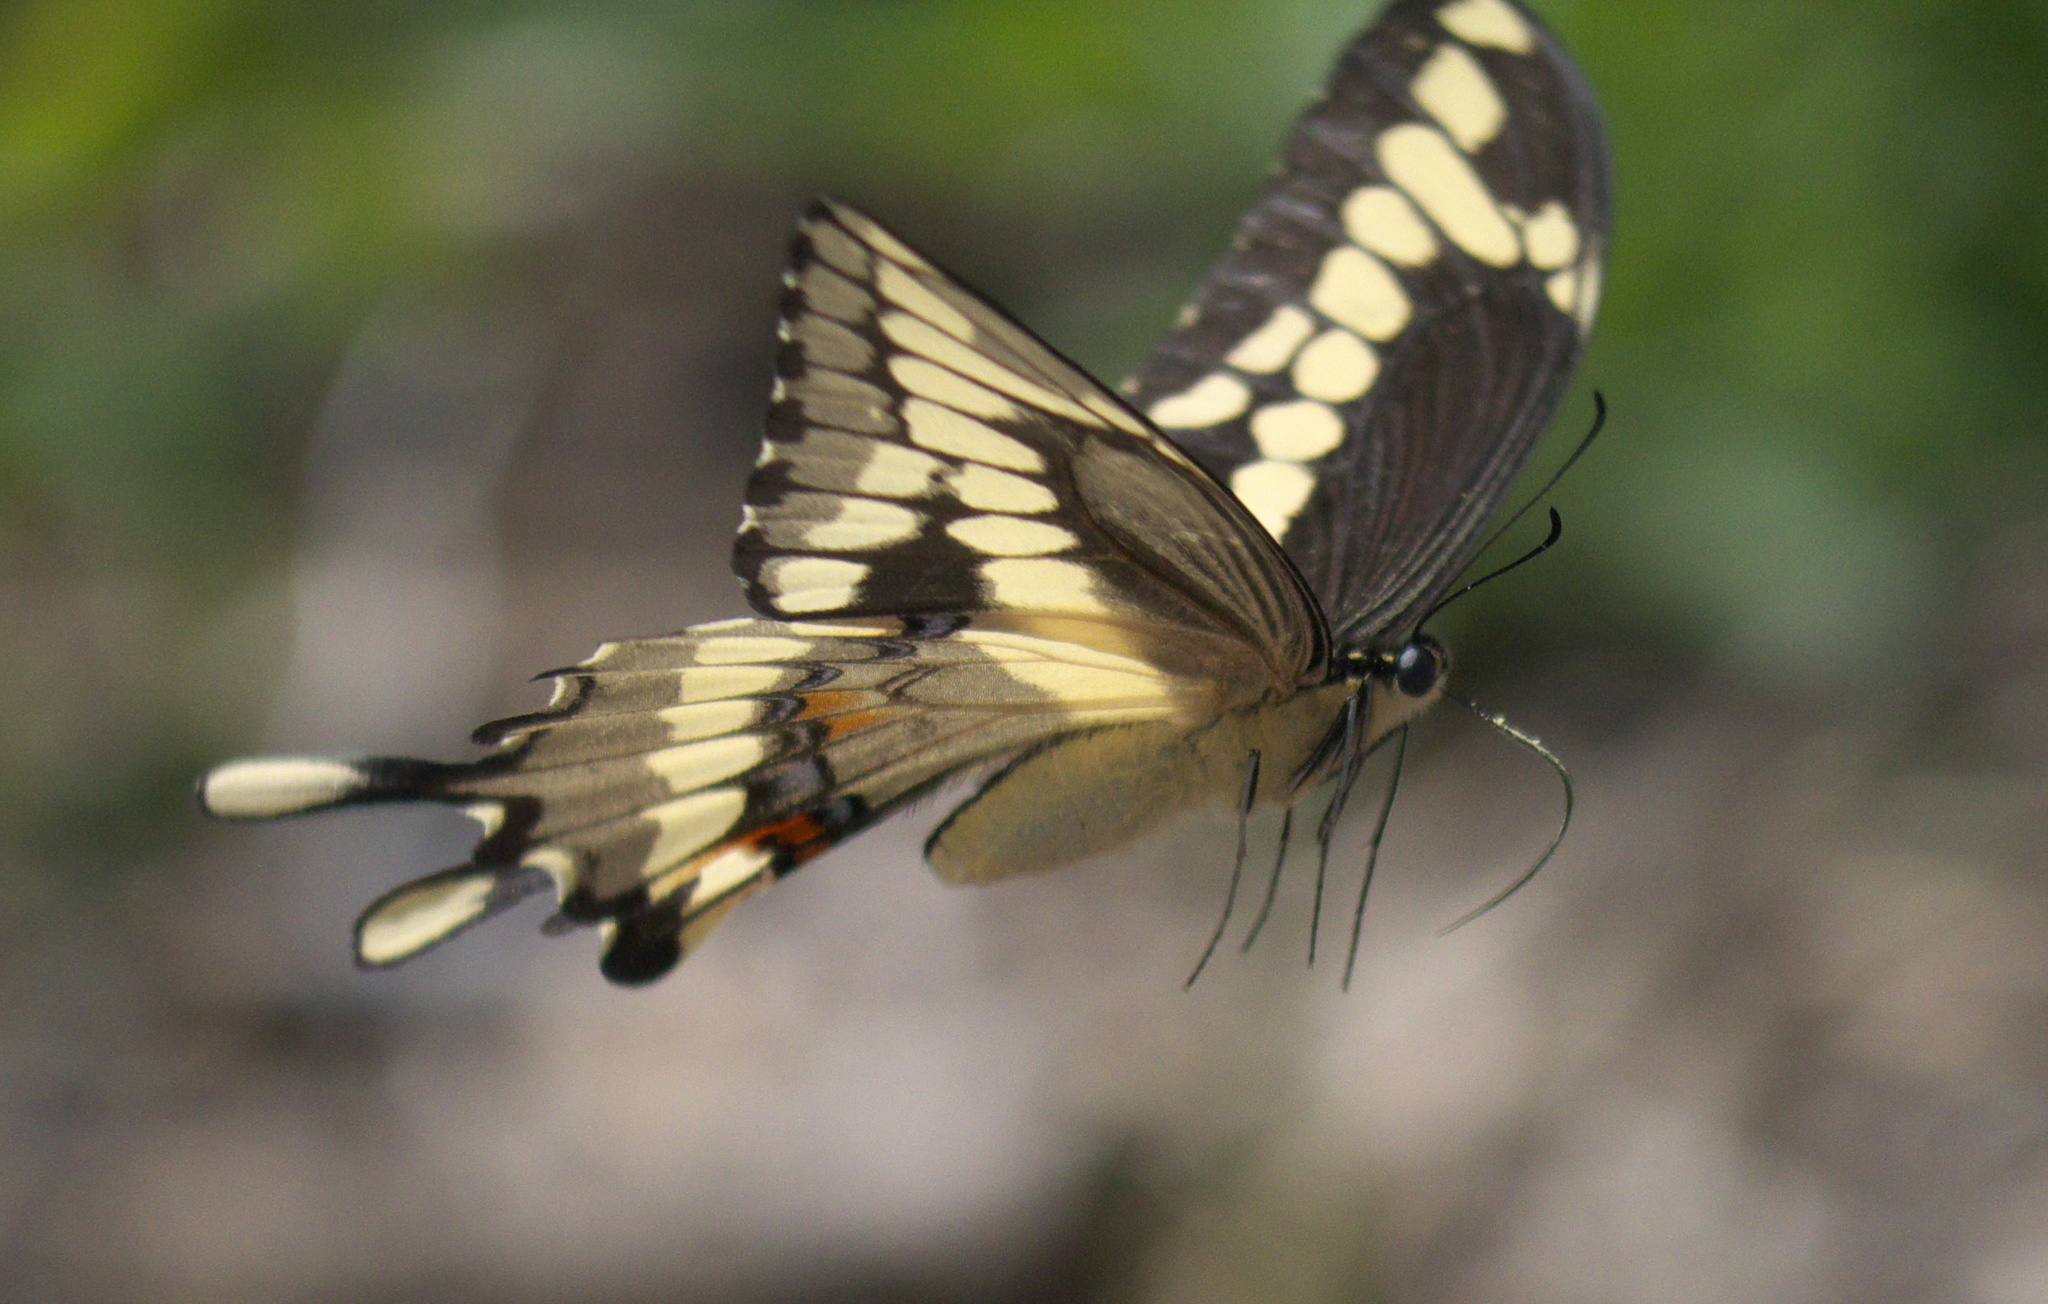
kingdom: Animalia
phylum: Arthropoda
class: Insecta
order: Lepidoptera
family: Papilionidae
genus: Papilio
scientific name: Papilio cresphontes
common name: Giant swallowtail
